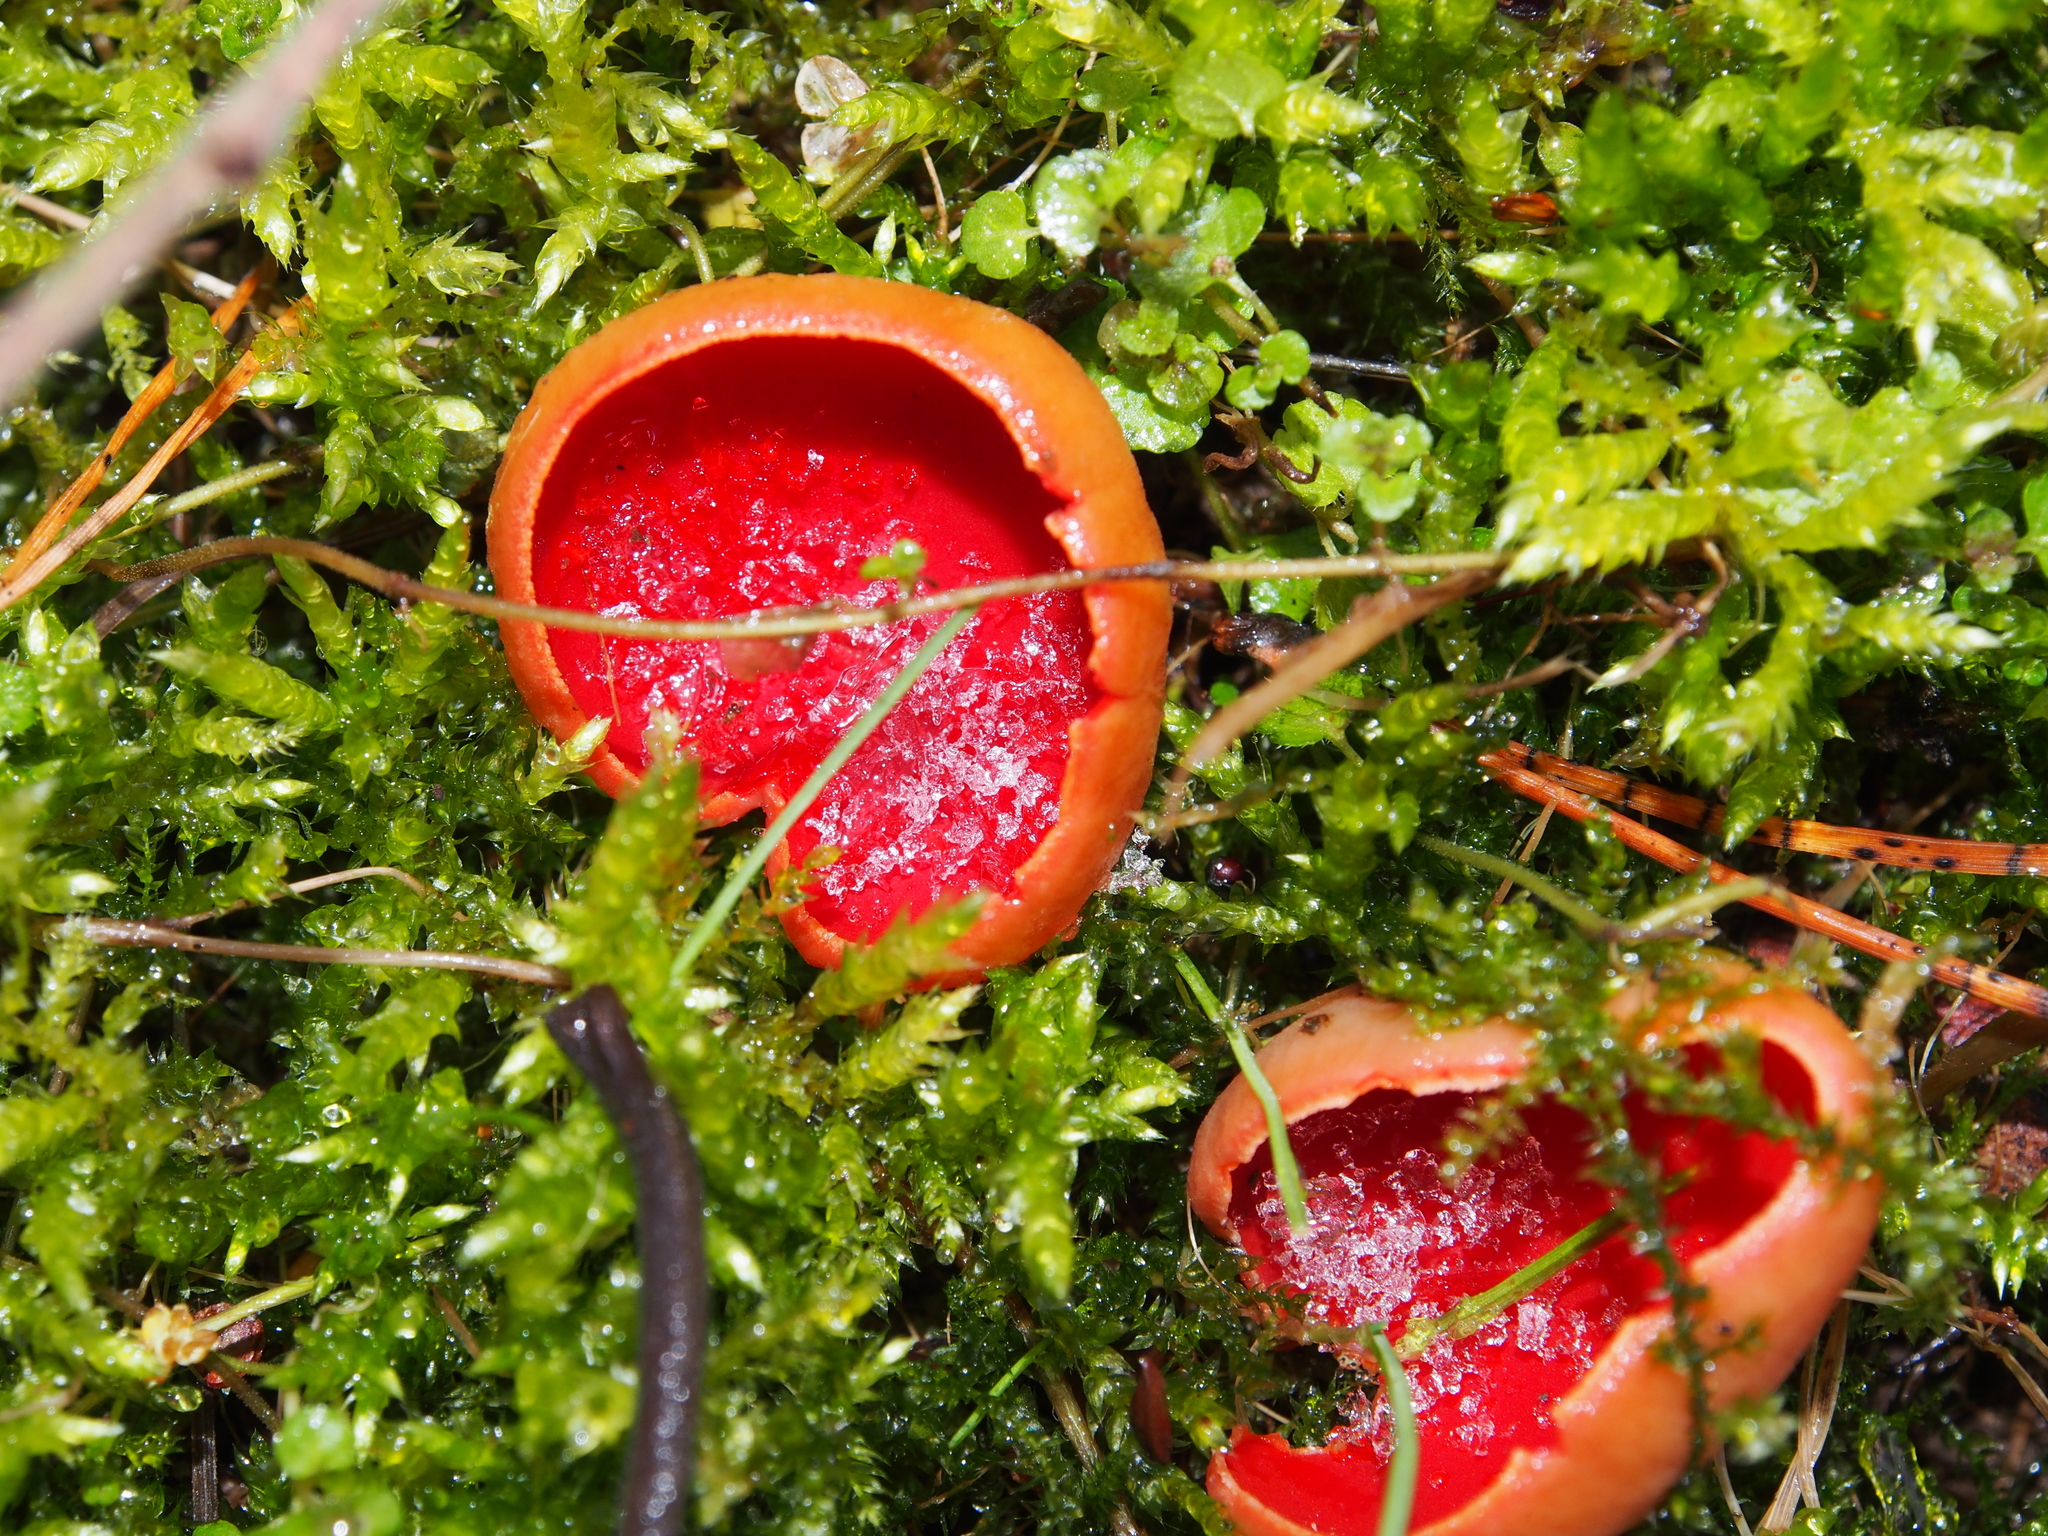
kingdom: Fungi
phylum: Ascomycota
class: Pezizomycetes
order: Pezizales
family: Sarcoscyphaceae
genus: Sarcoscypha
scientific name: Sarcoscypha austriaca
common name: Scarlet elfcup
